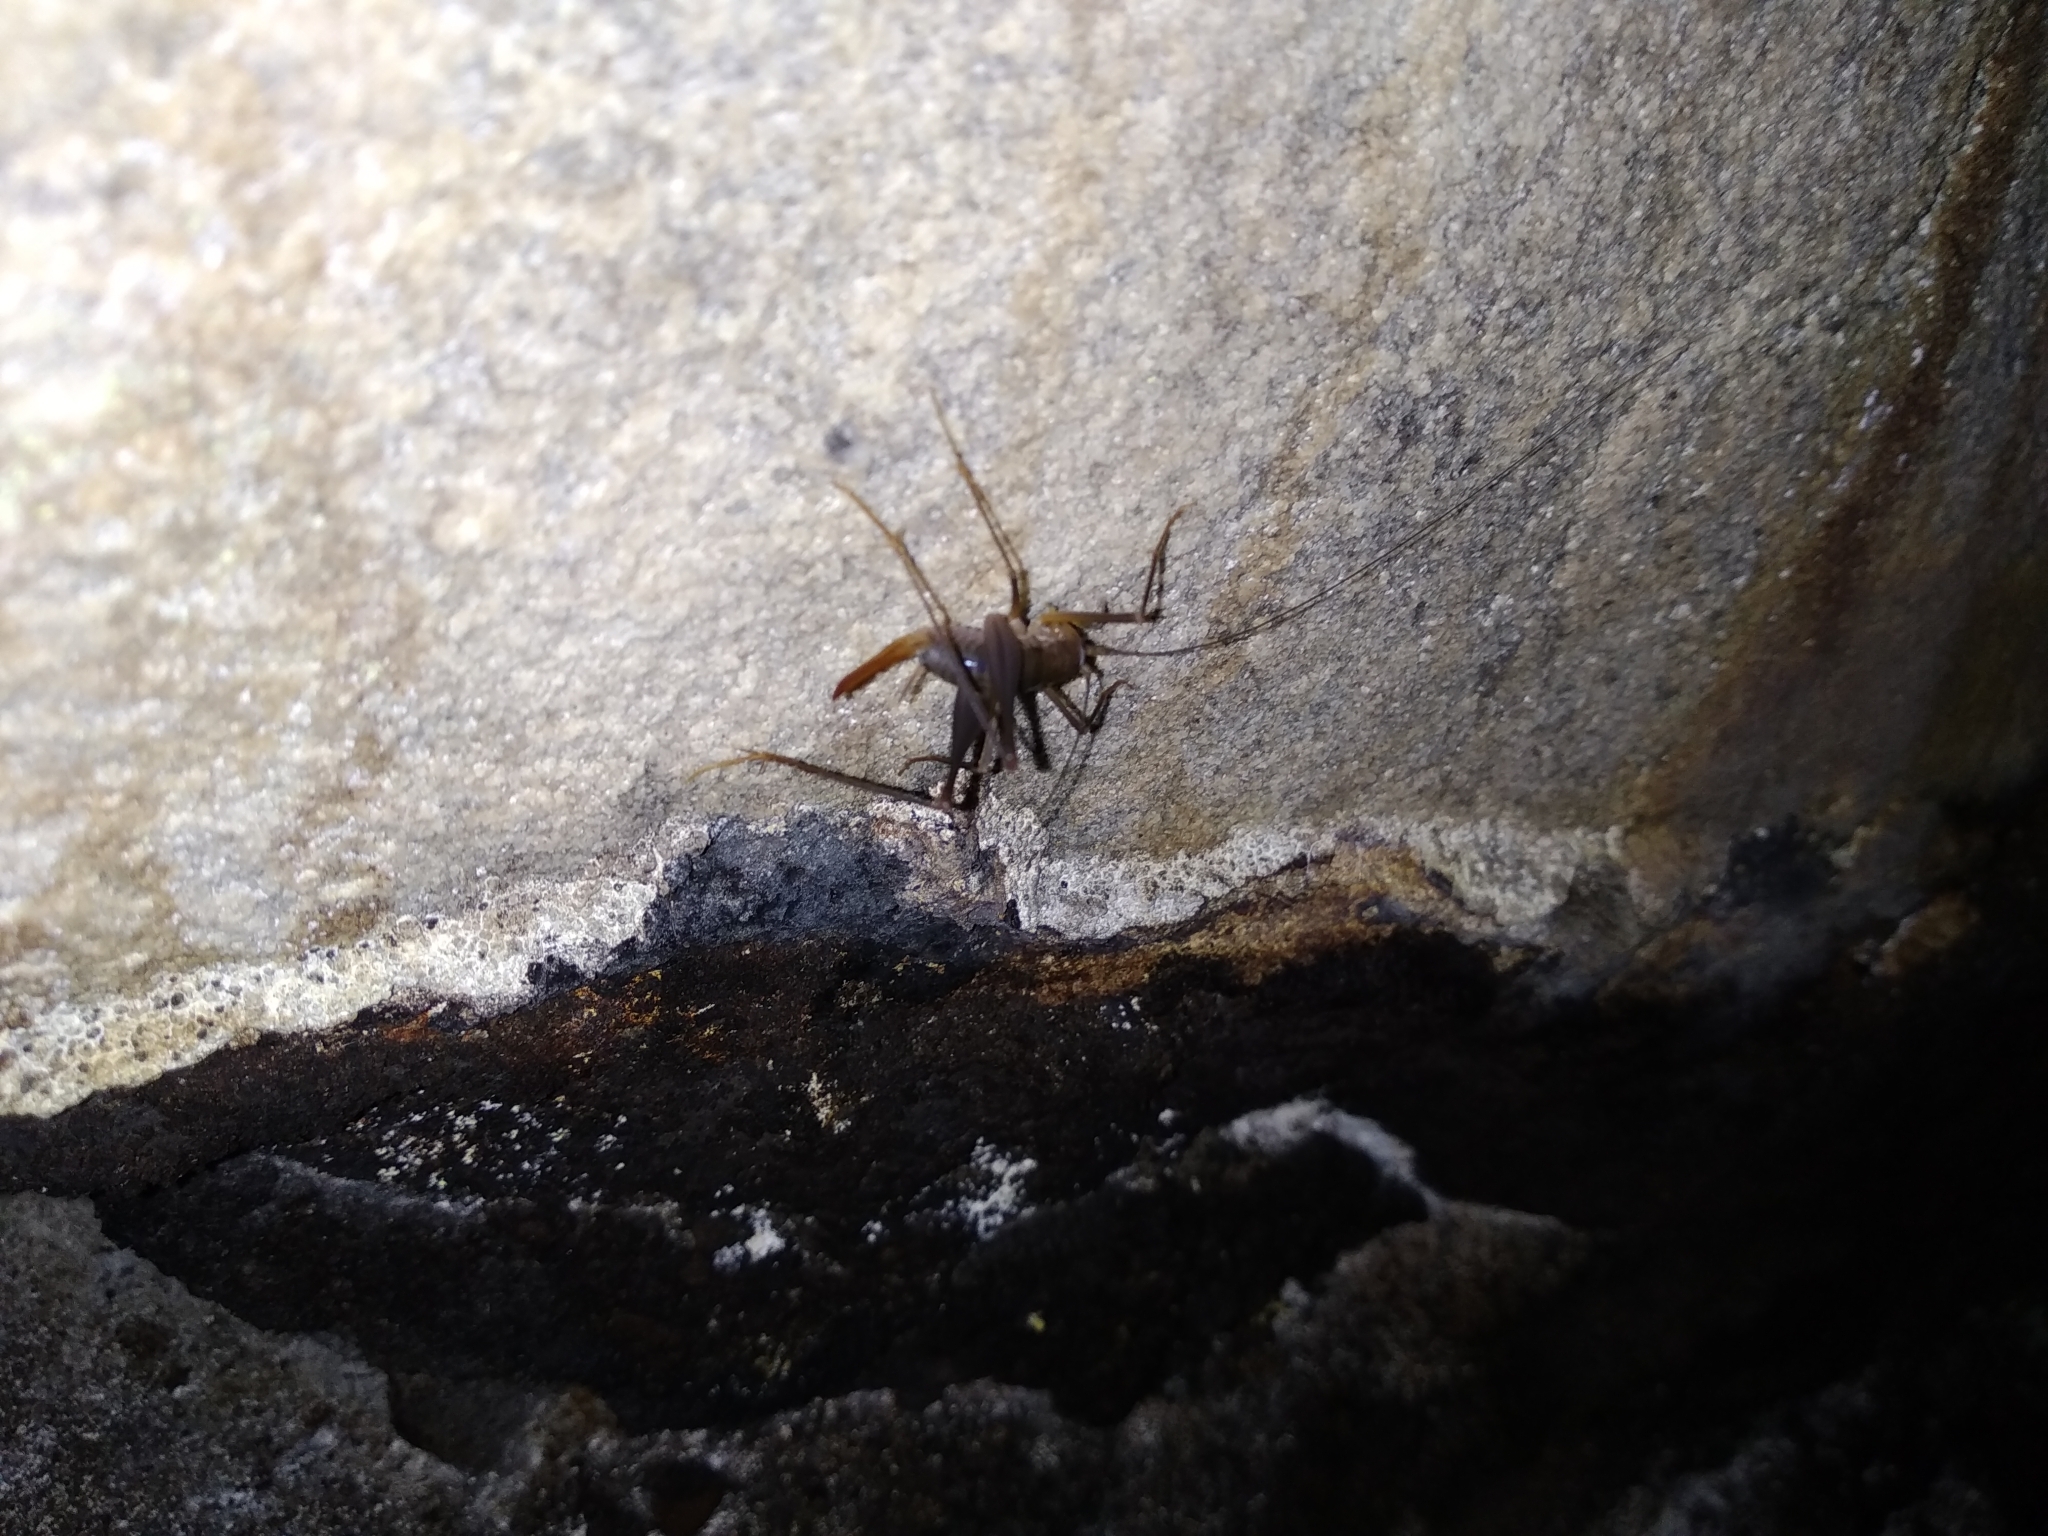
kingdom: Animalia
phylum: Arthropoda
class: Insecta
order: Orthoptera
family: Rhaphidophoridae
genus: Spelaeiacris
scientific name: Spelaeiacris tabulae
